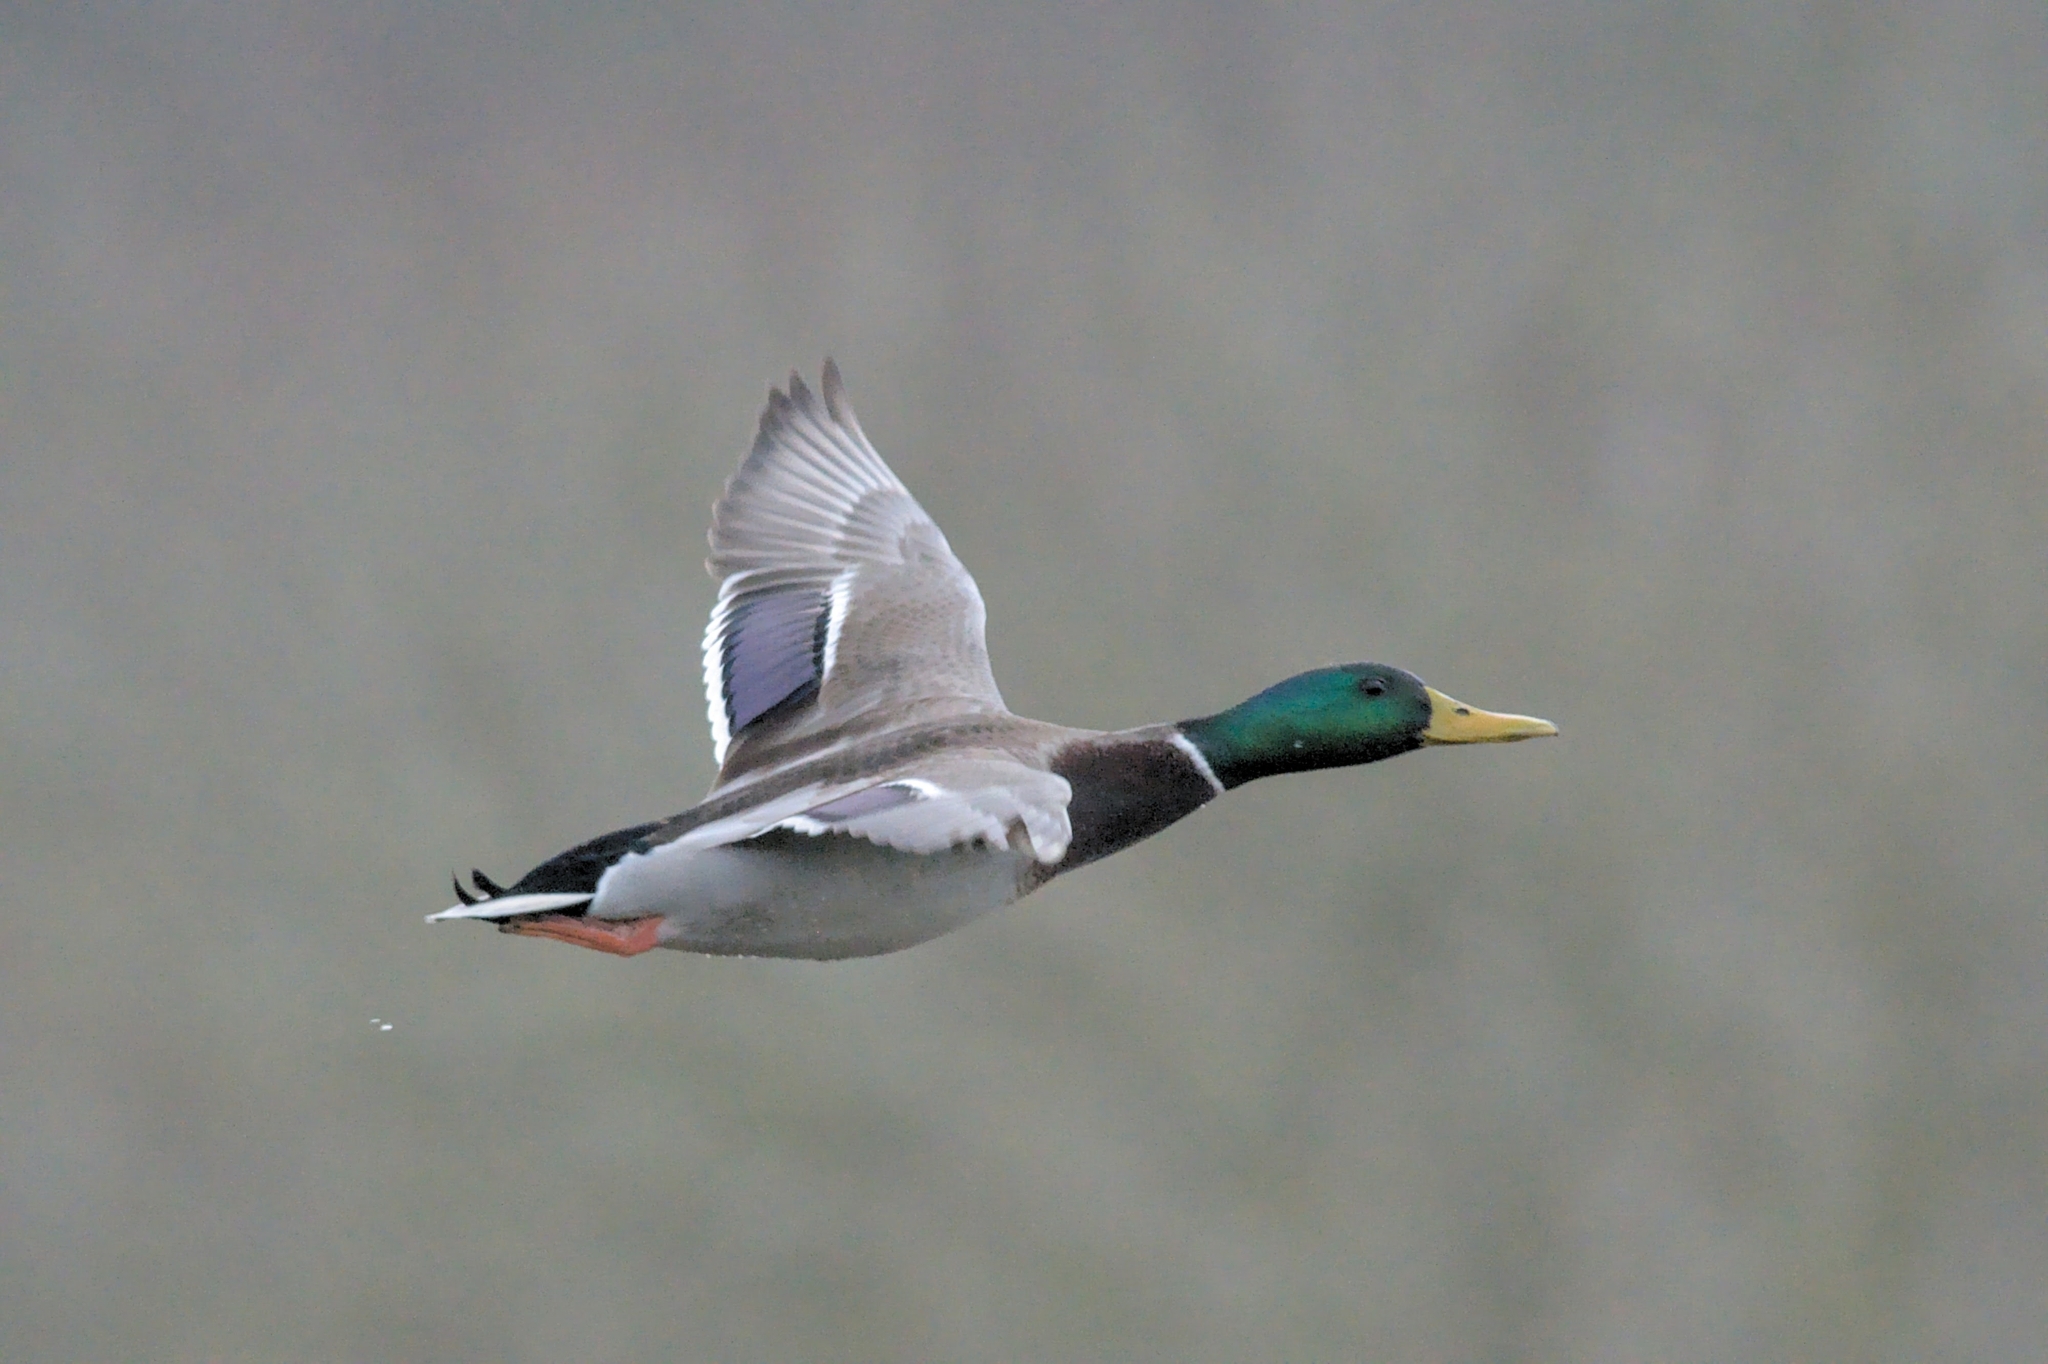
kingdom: Animalia
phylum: Chordata
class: Aves
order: Anseriformes
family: Anatidae
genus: Anas
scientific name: Anas platyrhynchos
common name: Mallard
